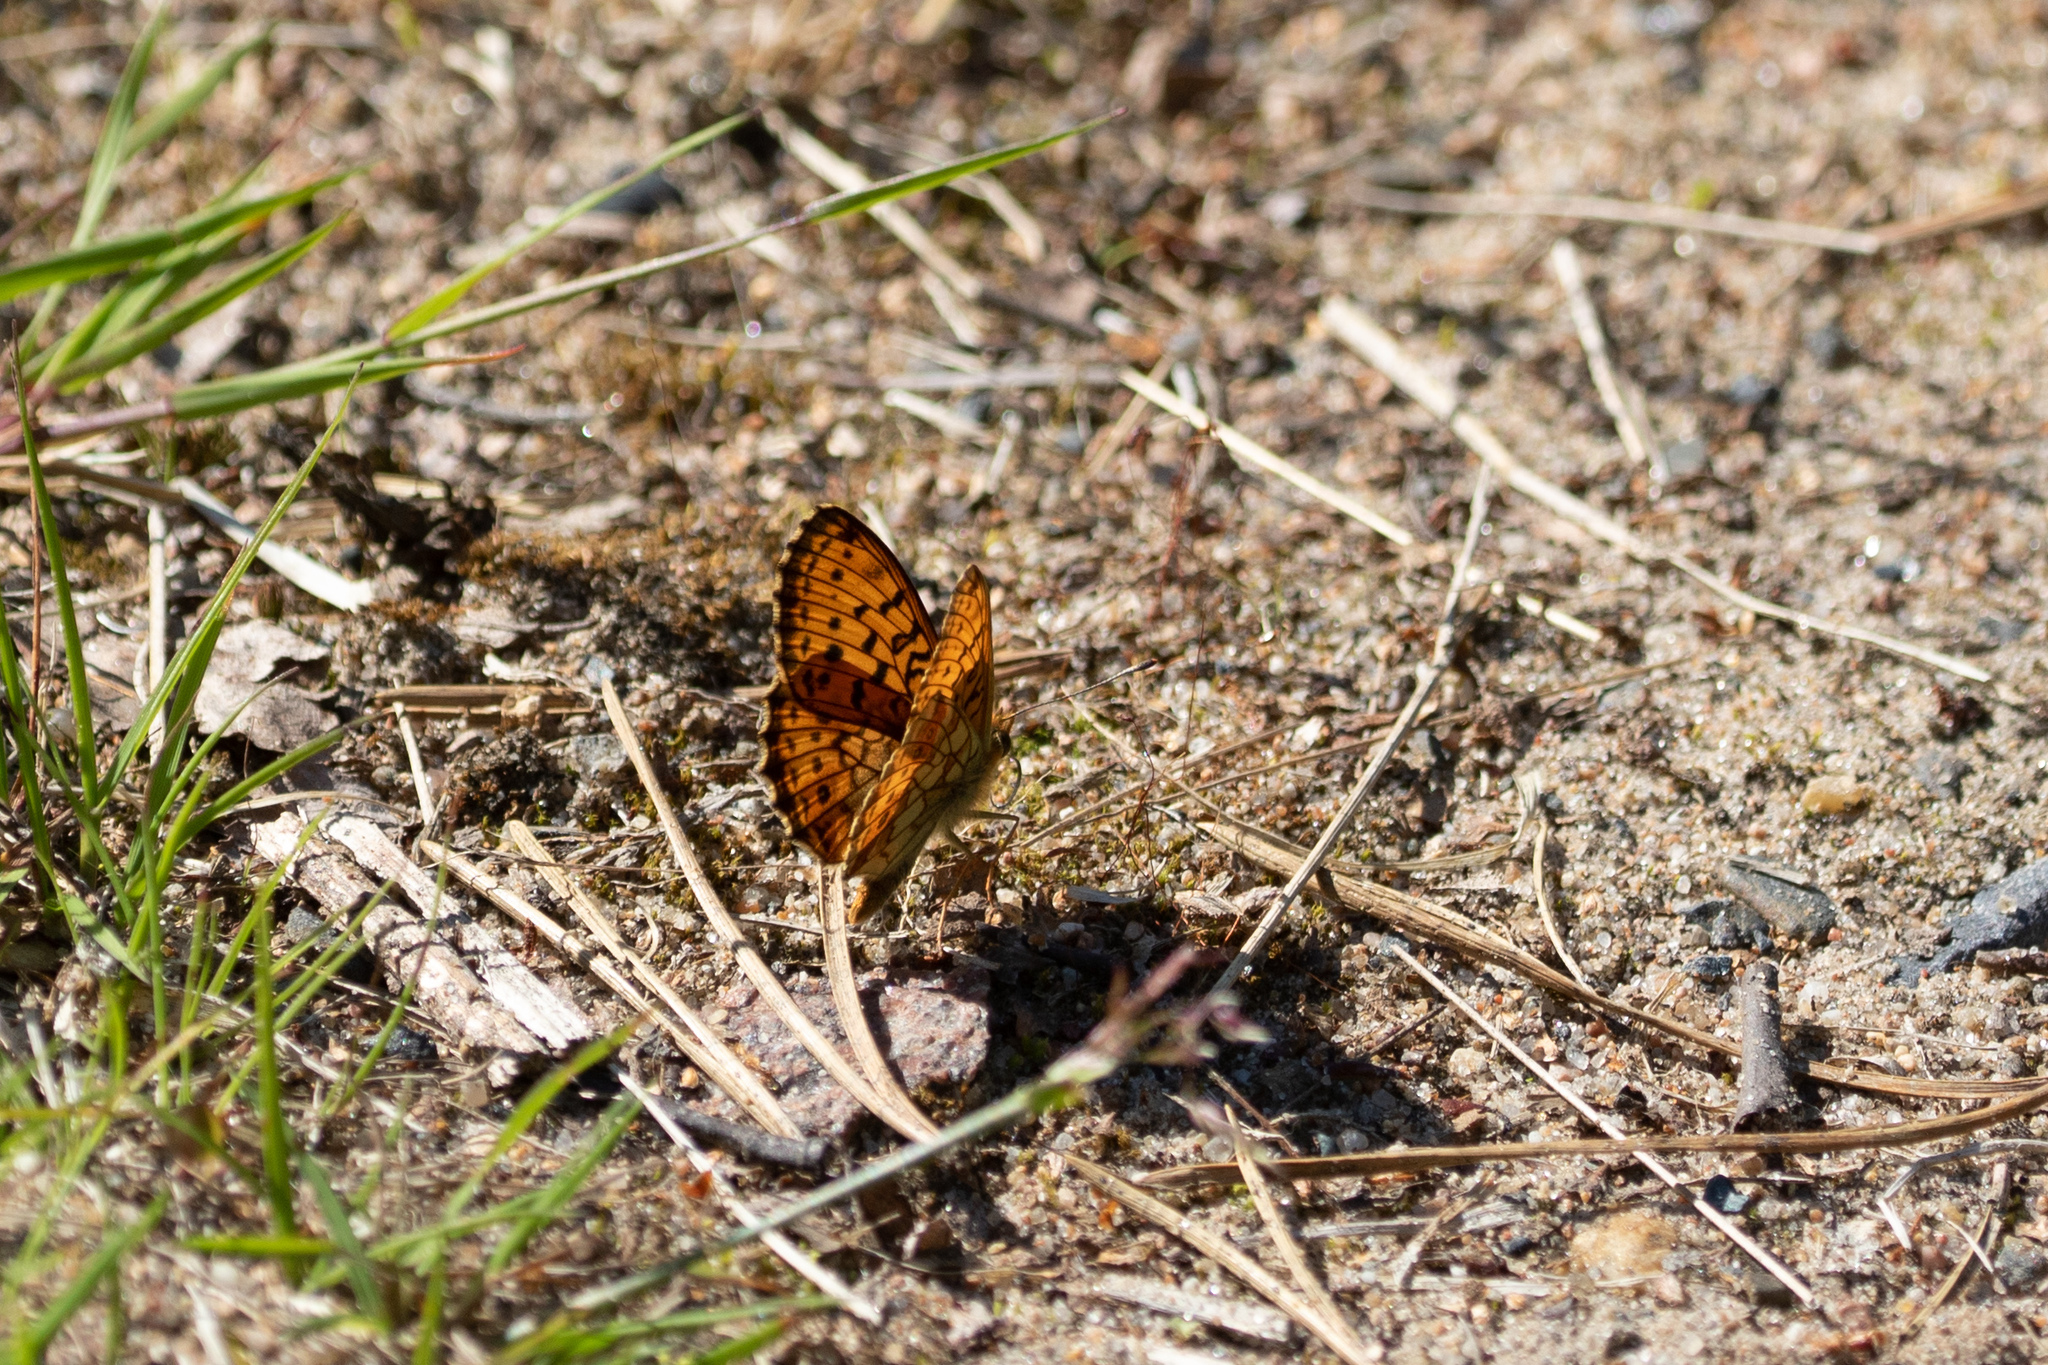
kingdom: Animalia
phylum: Arthropoda
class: Insecta
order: Lepidoptera
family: Nymphalidae
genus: Brenthis
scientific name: Brenthis ino
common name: Lesser marbled fritillary
